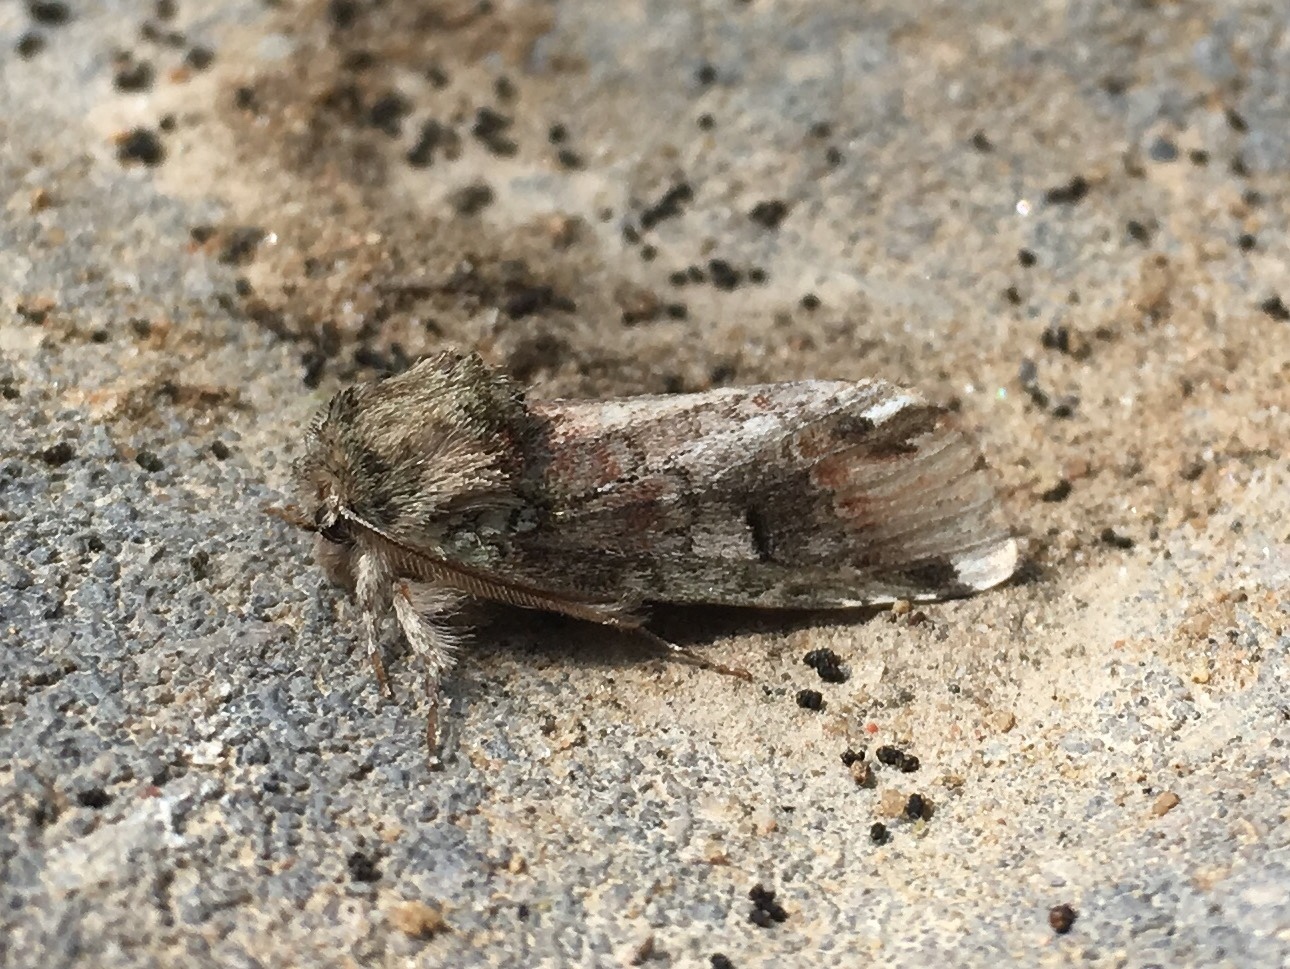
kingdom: Animalia
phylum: Arthropoda
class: Insecta
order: Lepidoptera
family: Notodontidae
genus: Schizura
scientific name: Schizura
